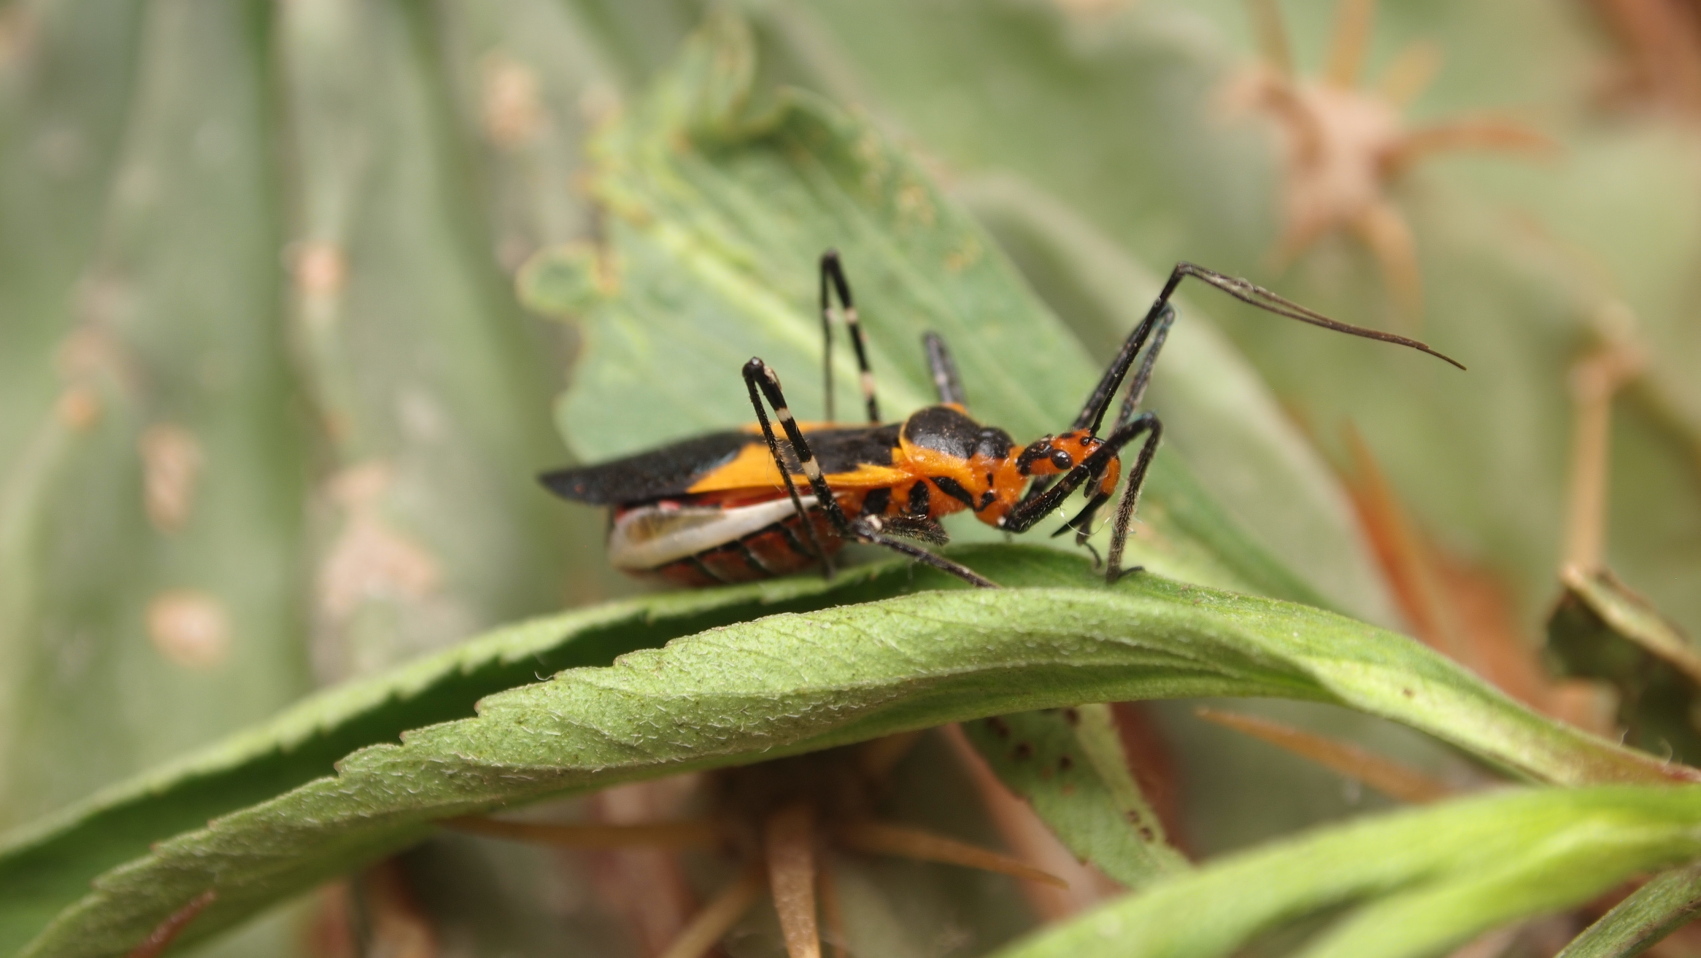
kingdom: Animalia
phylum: Arthropoda
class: Insecta
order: Hemiptera
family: Reduviidae
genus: Zelus
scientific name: Zelus longipes
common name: Milkweed assassin bug
